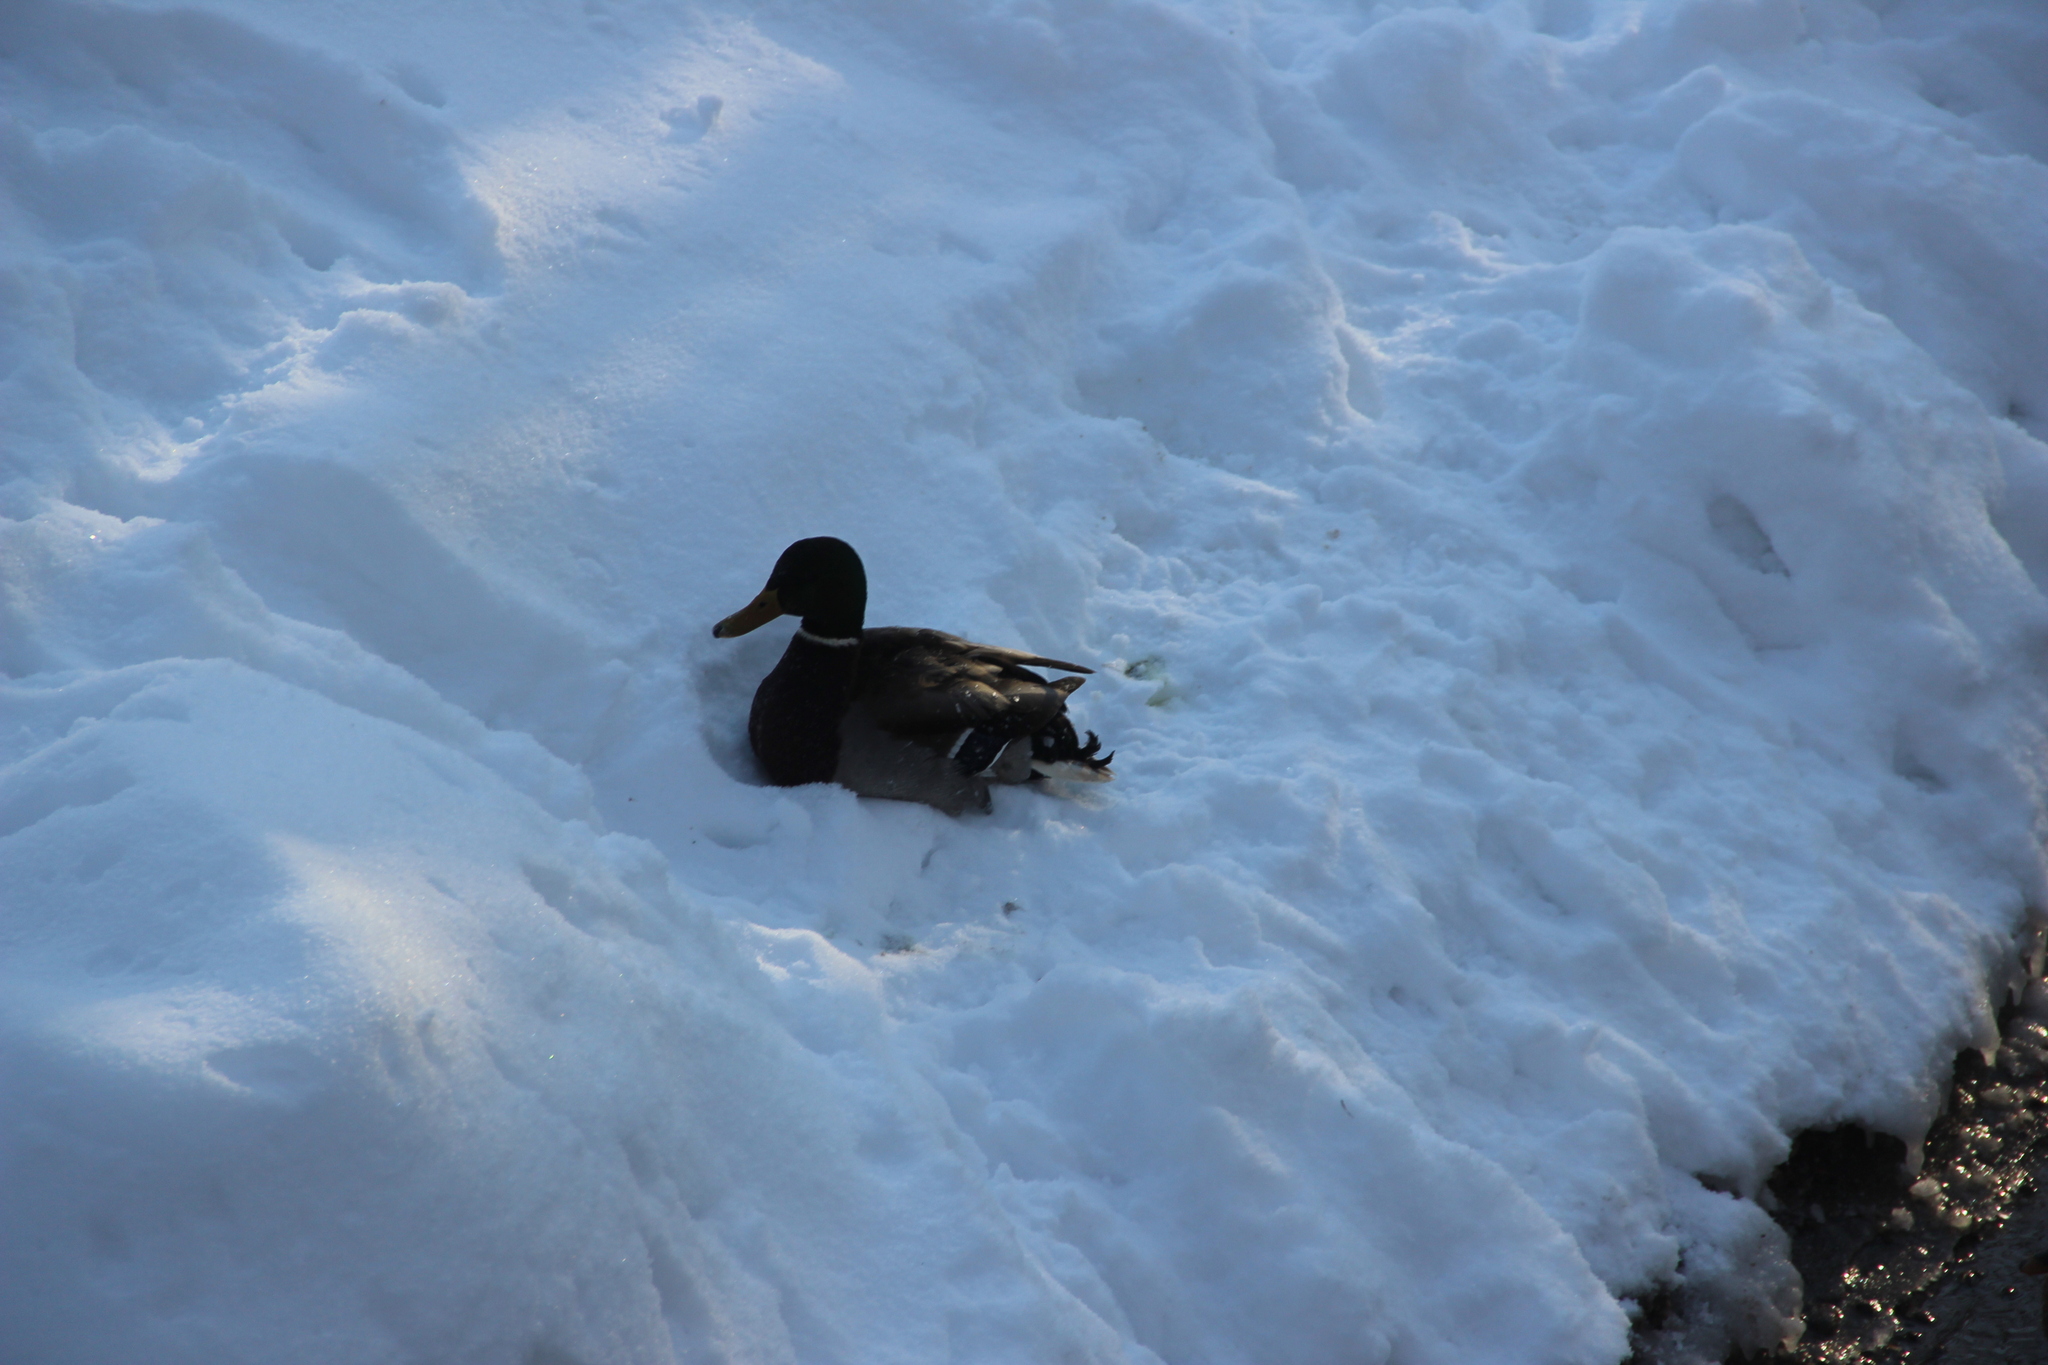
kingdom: Animalia
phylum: Chordata
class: Aves
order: Anseriformes
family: Anatidae
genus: Anas
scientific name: Anas platyrhynchos
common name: Mallard
